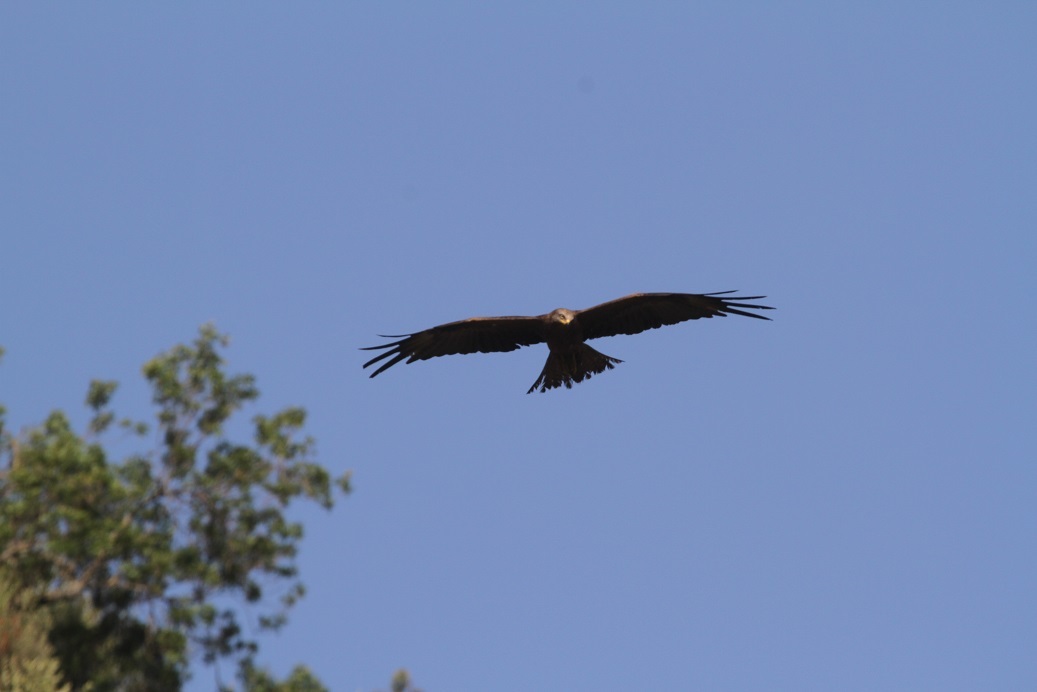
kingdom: Animalia
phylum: Chordata
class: Aves
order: Accipitriformes
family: Accipitridae
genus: Milvus
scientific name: Milvus migrans
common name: Black kite
